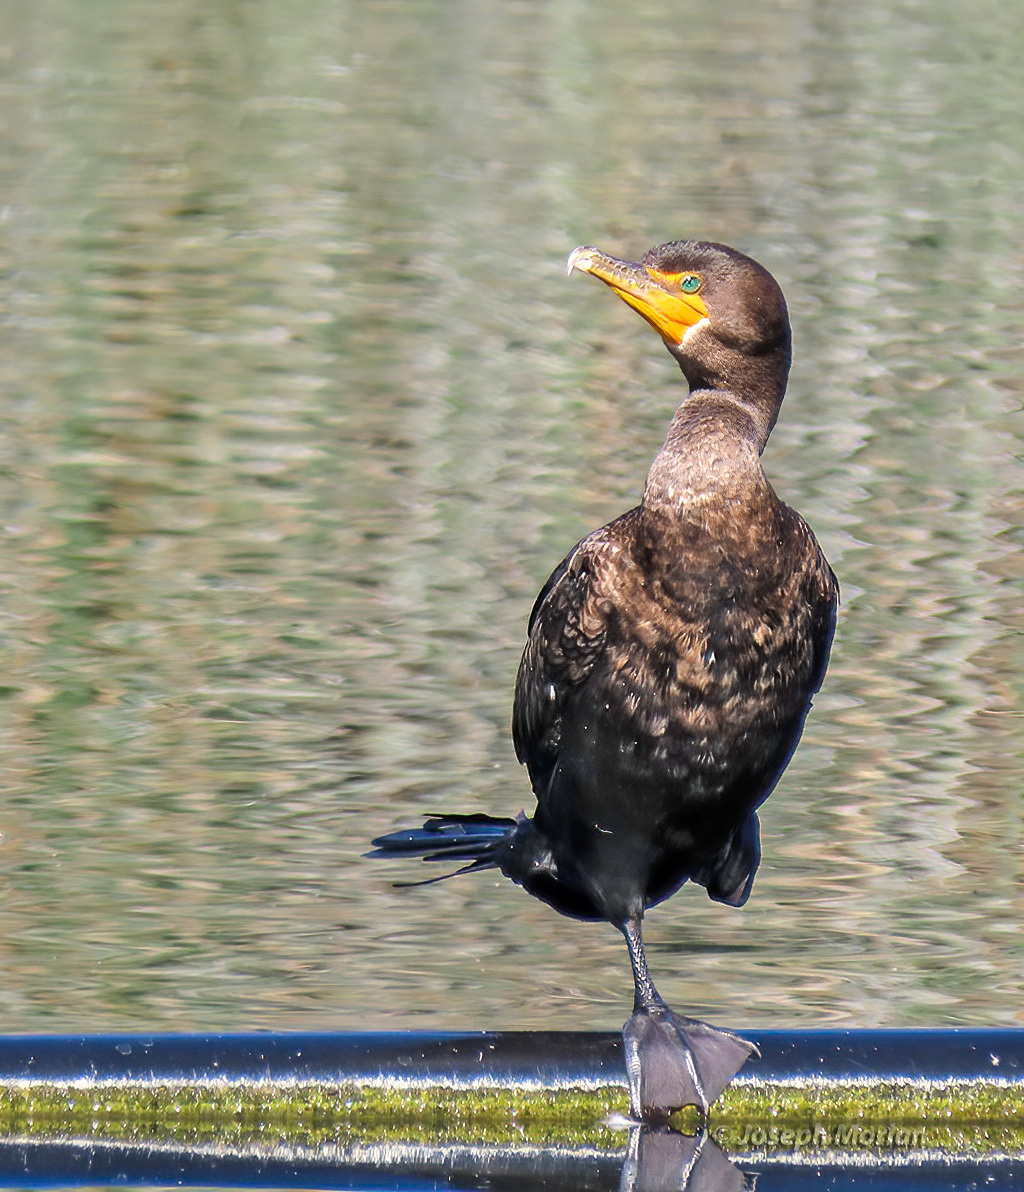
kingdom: Animalia
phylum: Chordata
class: Aves
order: Suliformes
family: Phalacrocoracidae
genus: Phalacrocorax
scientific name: Phalacrocorax auritus
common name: Double-crested cormorant
